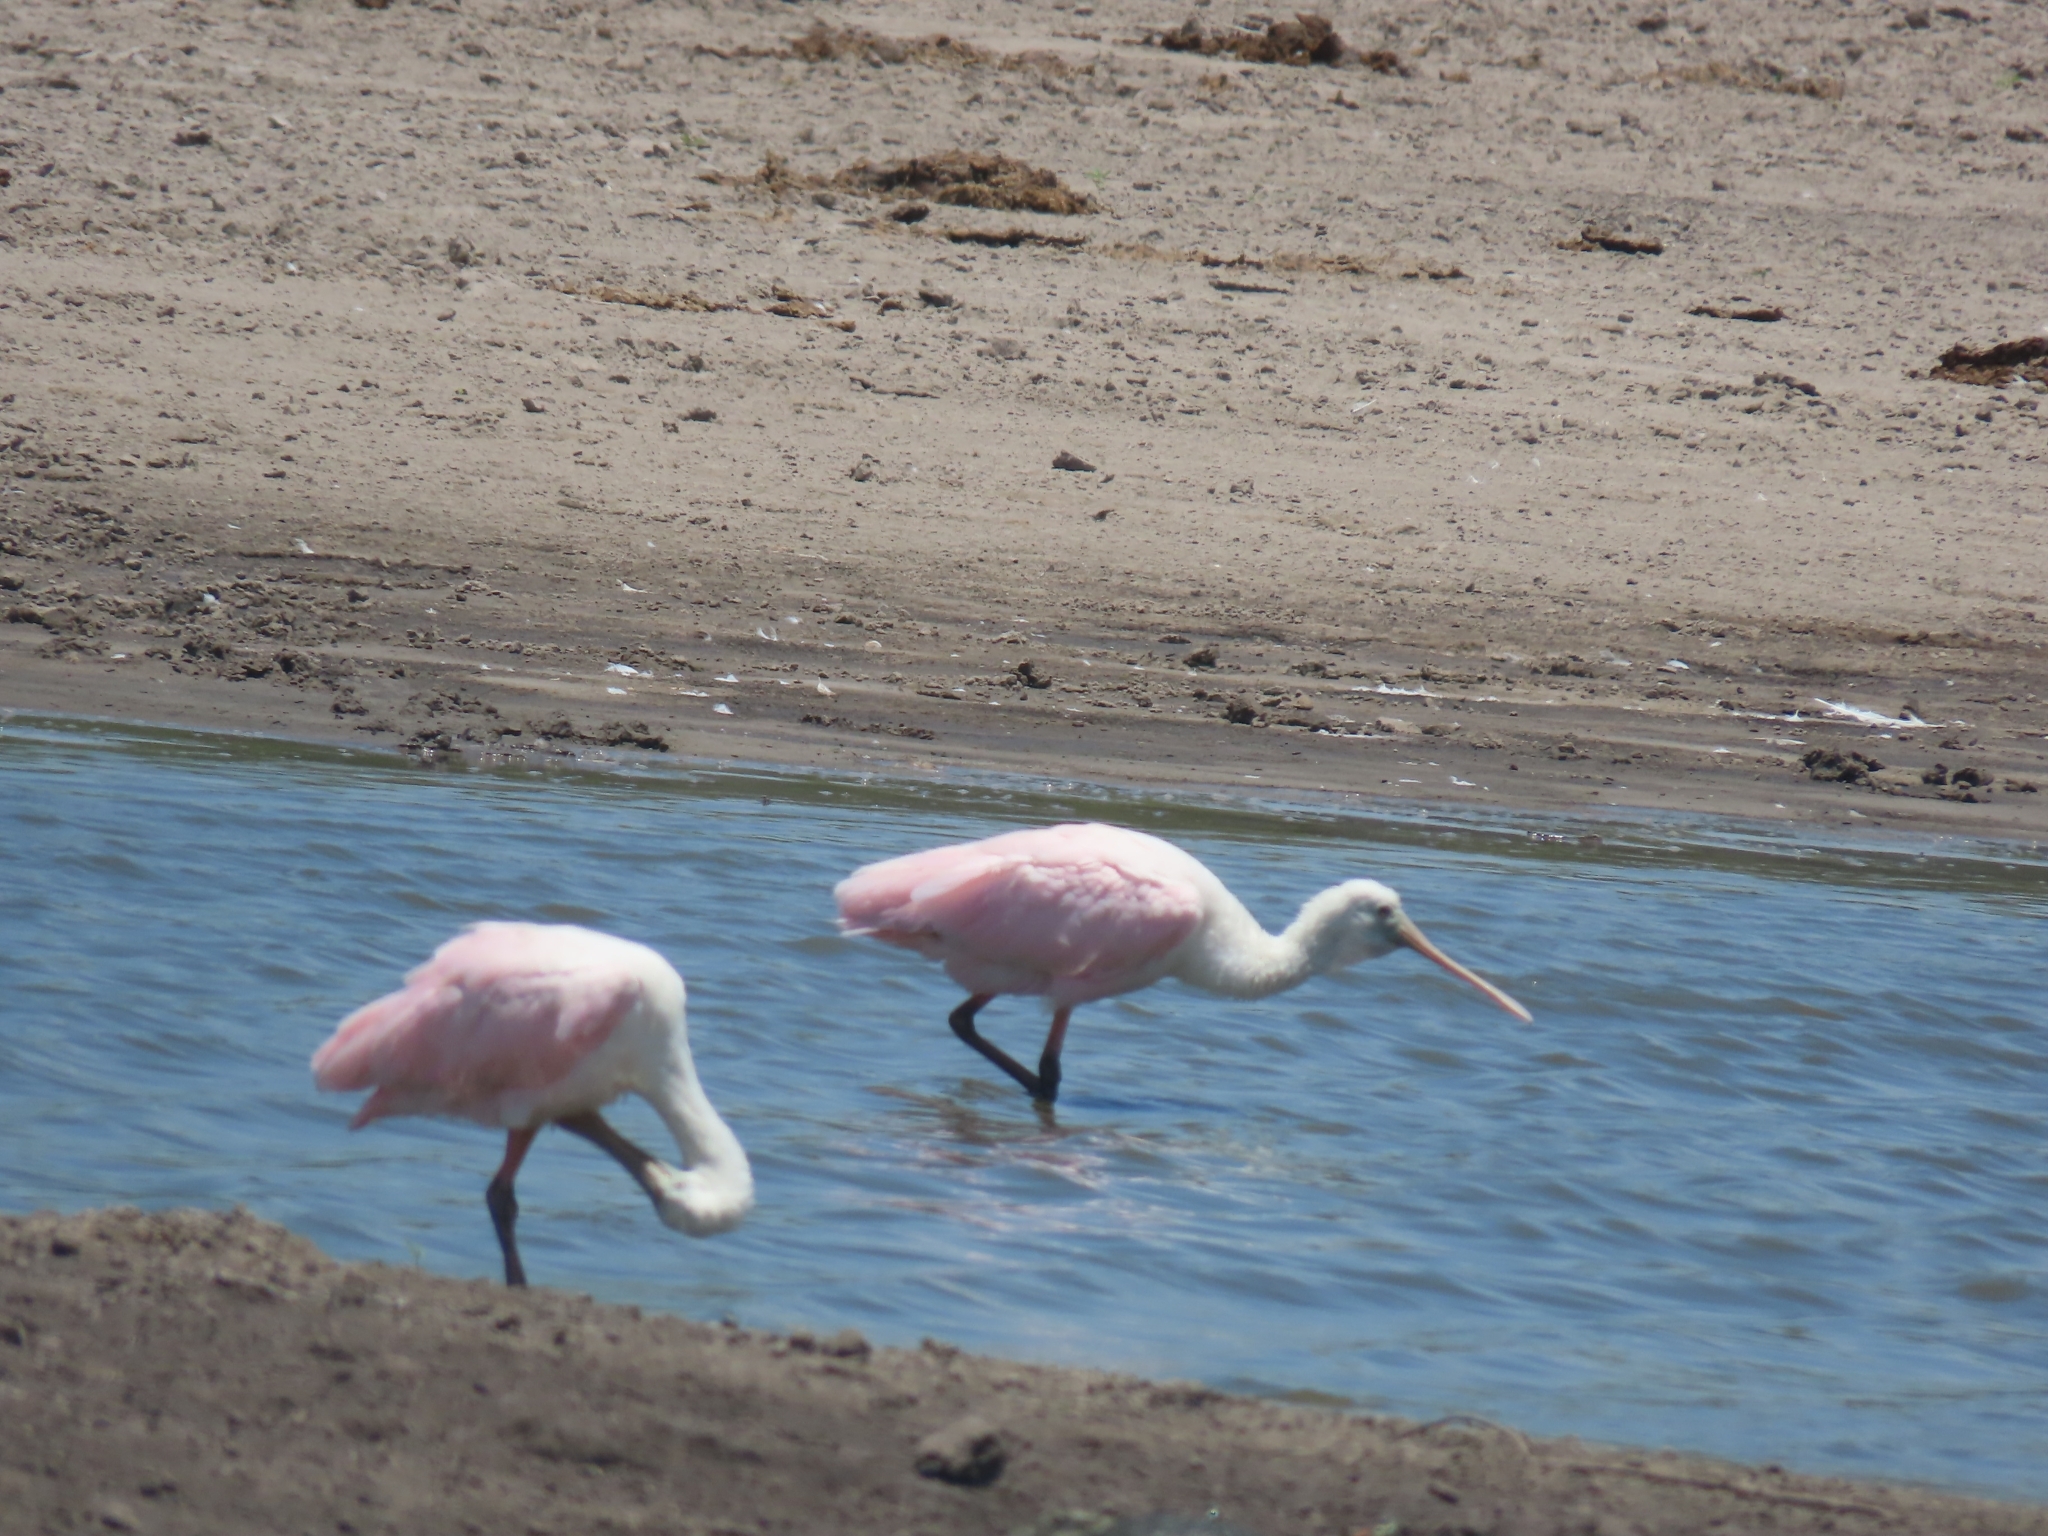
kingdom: Animalia
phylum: Chordata
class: Aves
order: Pelecaniformes
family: Threskiornithidae
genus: Platalea
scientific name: Platalea ajaja
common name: Roseate spoonbill
